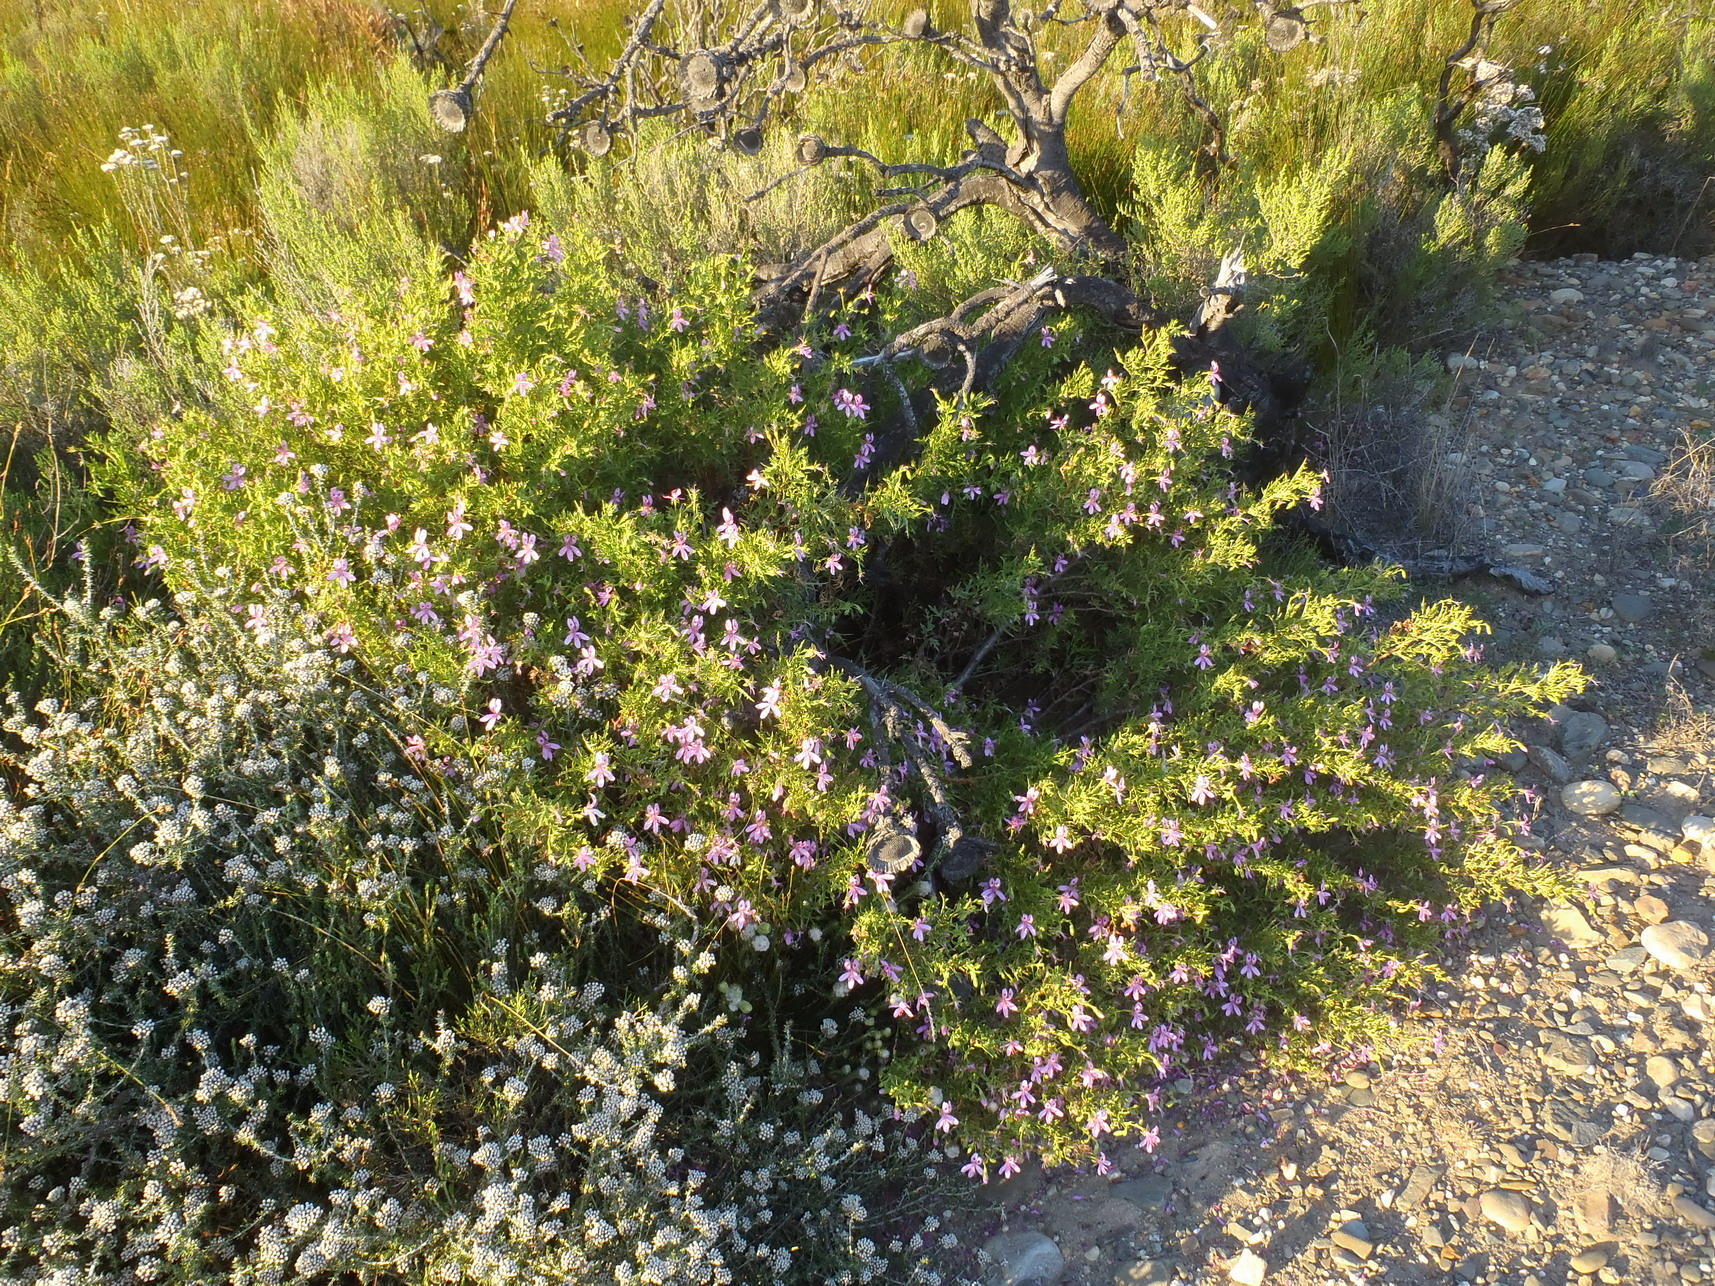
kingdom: Plantae
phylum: Tracheophyta
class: Magnoliopsida
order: Geraniales
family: Geraniaceae
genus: Pelargonium
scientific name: Pelargonium pseudoglutinosum
